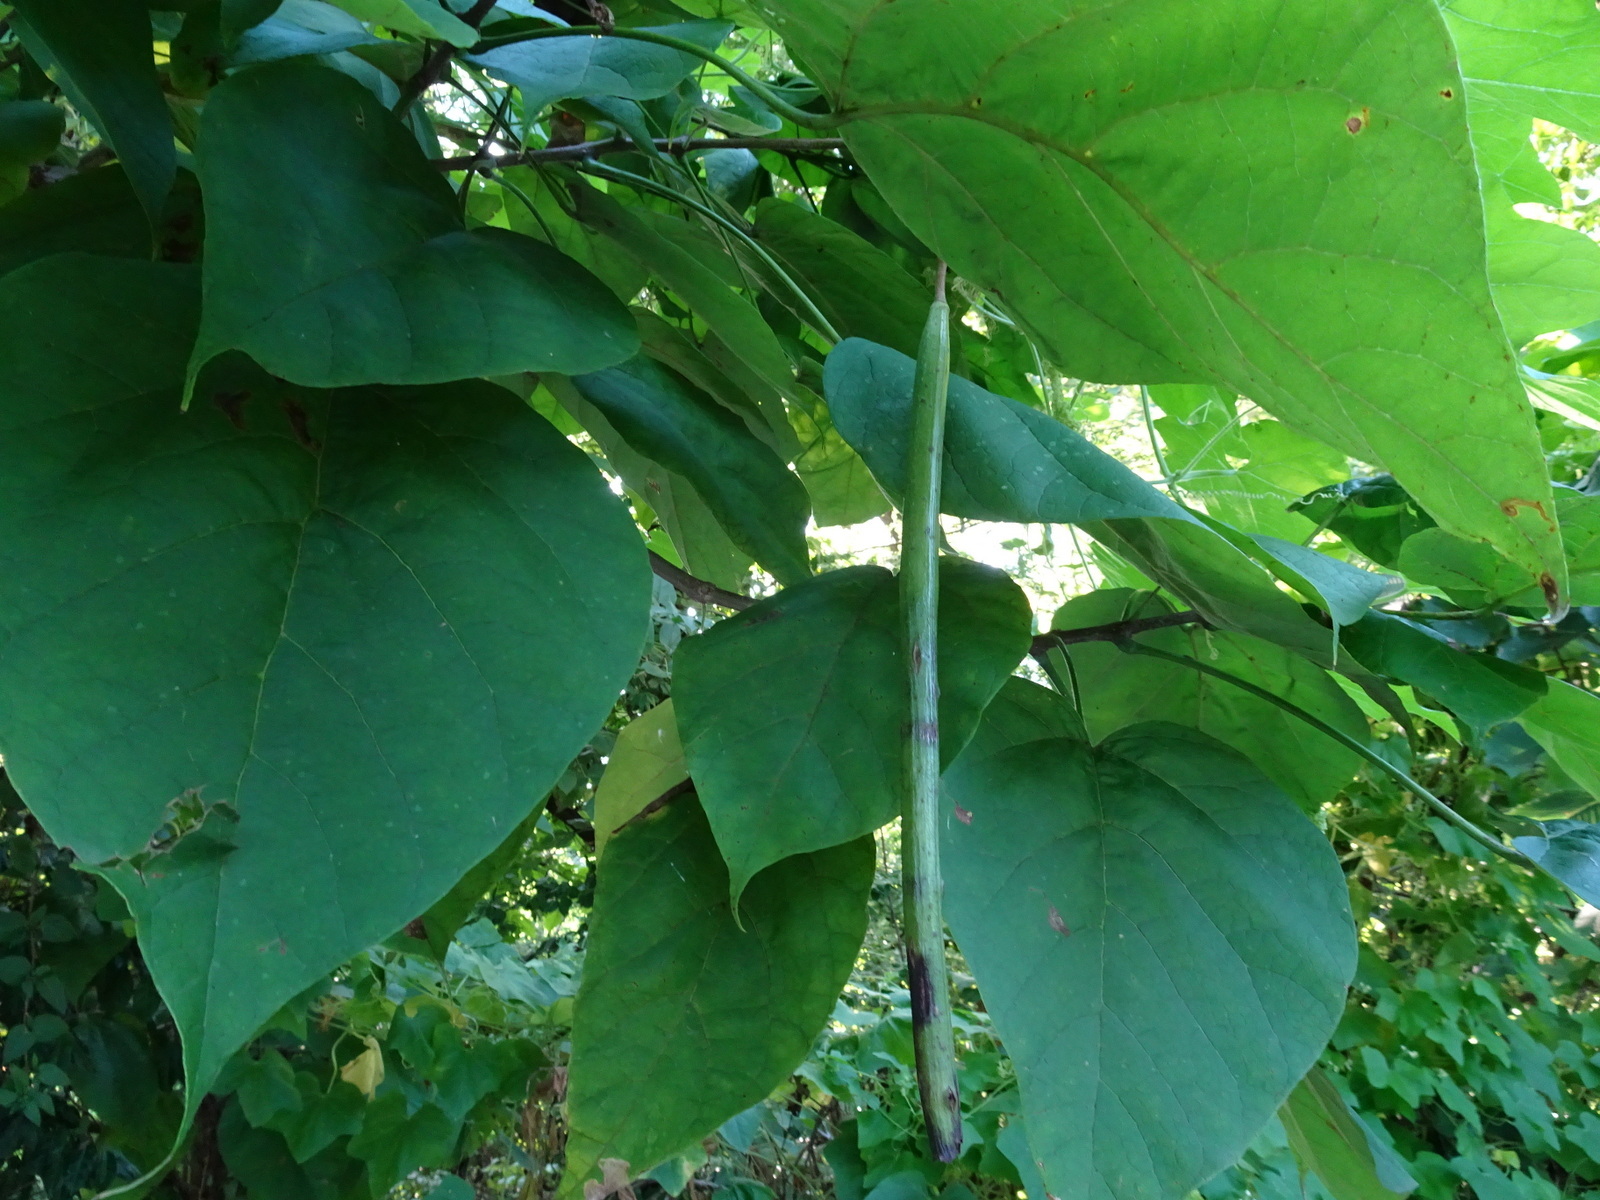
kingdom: Plantae
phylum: Tracheophyta
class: Magnoliopsida
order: Lamiales
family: Bignoniaceae
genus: Catalpa
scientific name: Catalpa speciosa
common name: Northern catalpa
